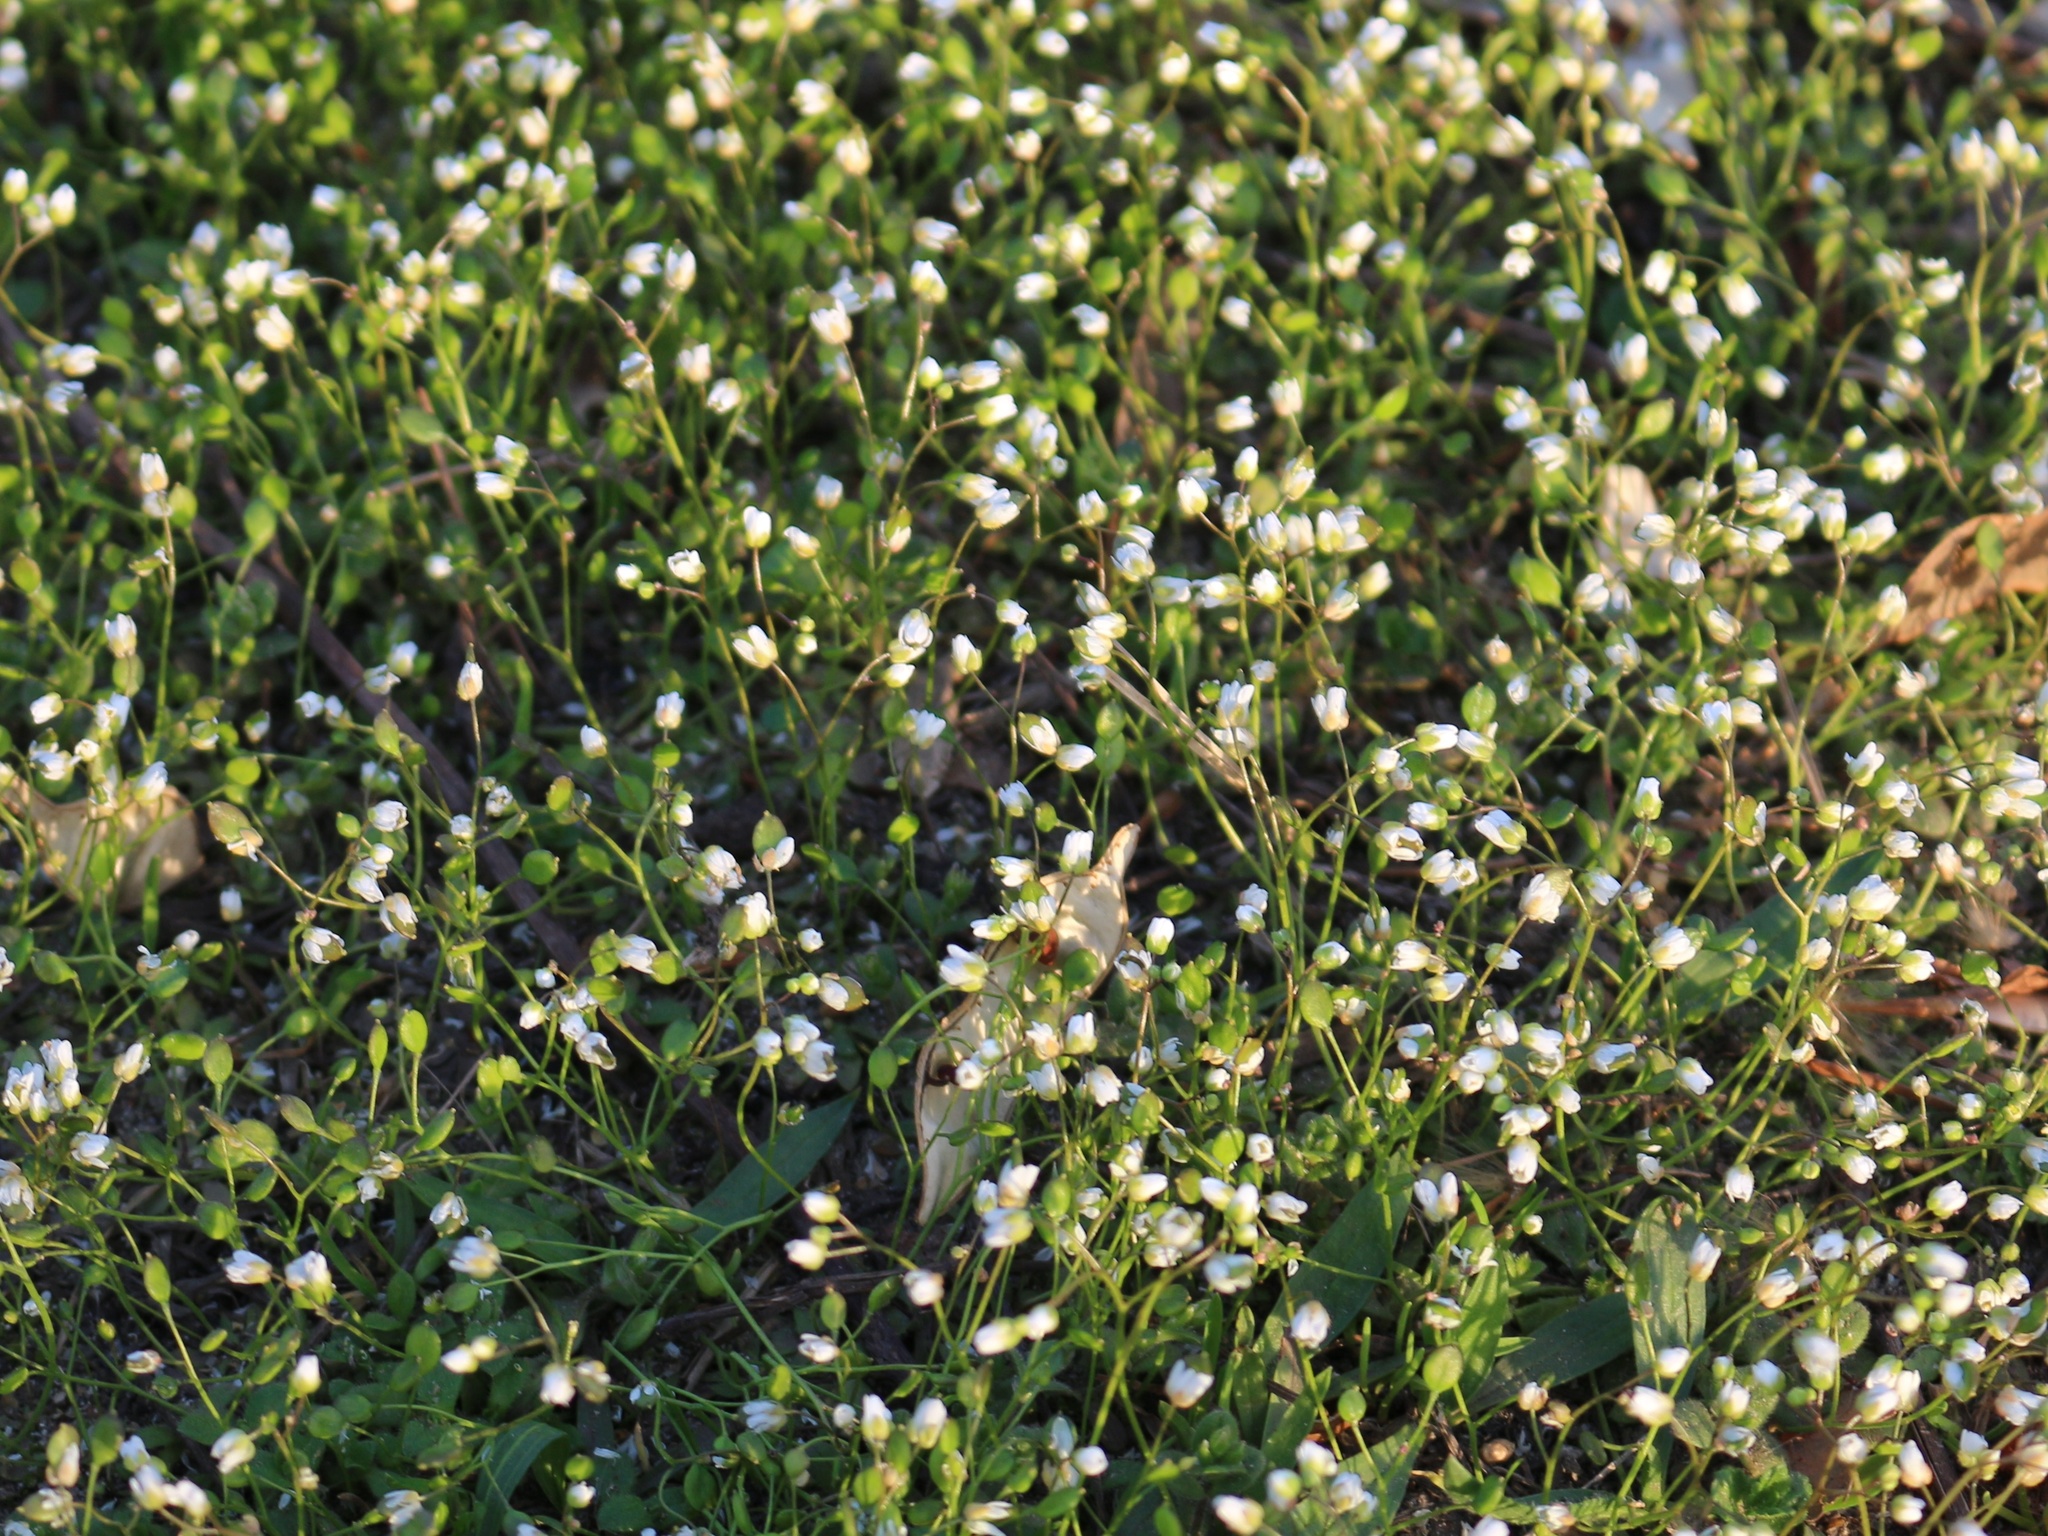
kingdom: Plantae
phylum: Tracheophyta
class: Magnoliopsida
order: Brassicales
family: Brassicaceae
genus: Draba
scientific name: Draba verna
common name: Spring draba
